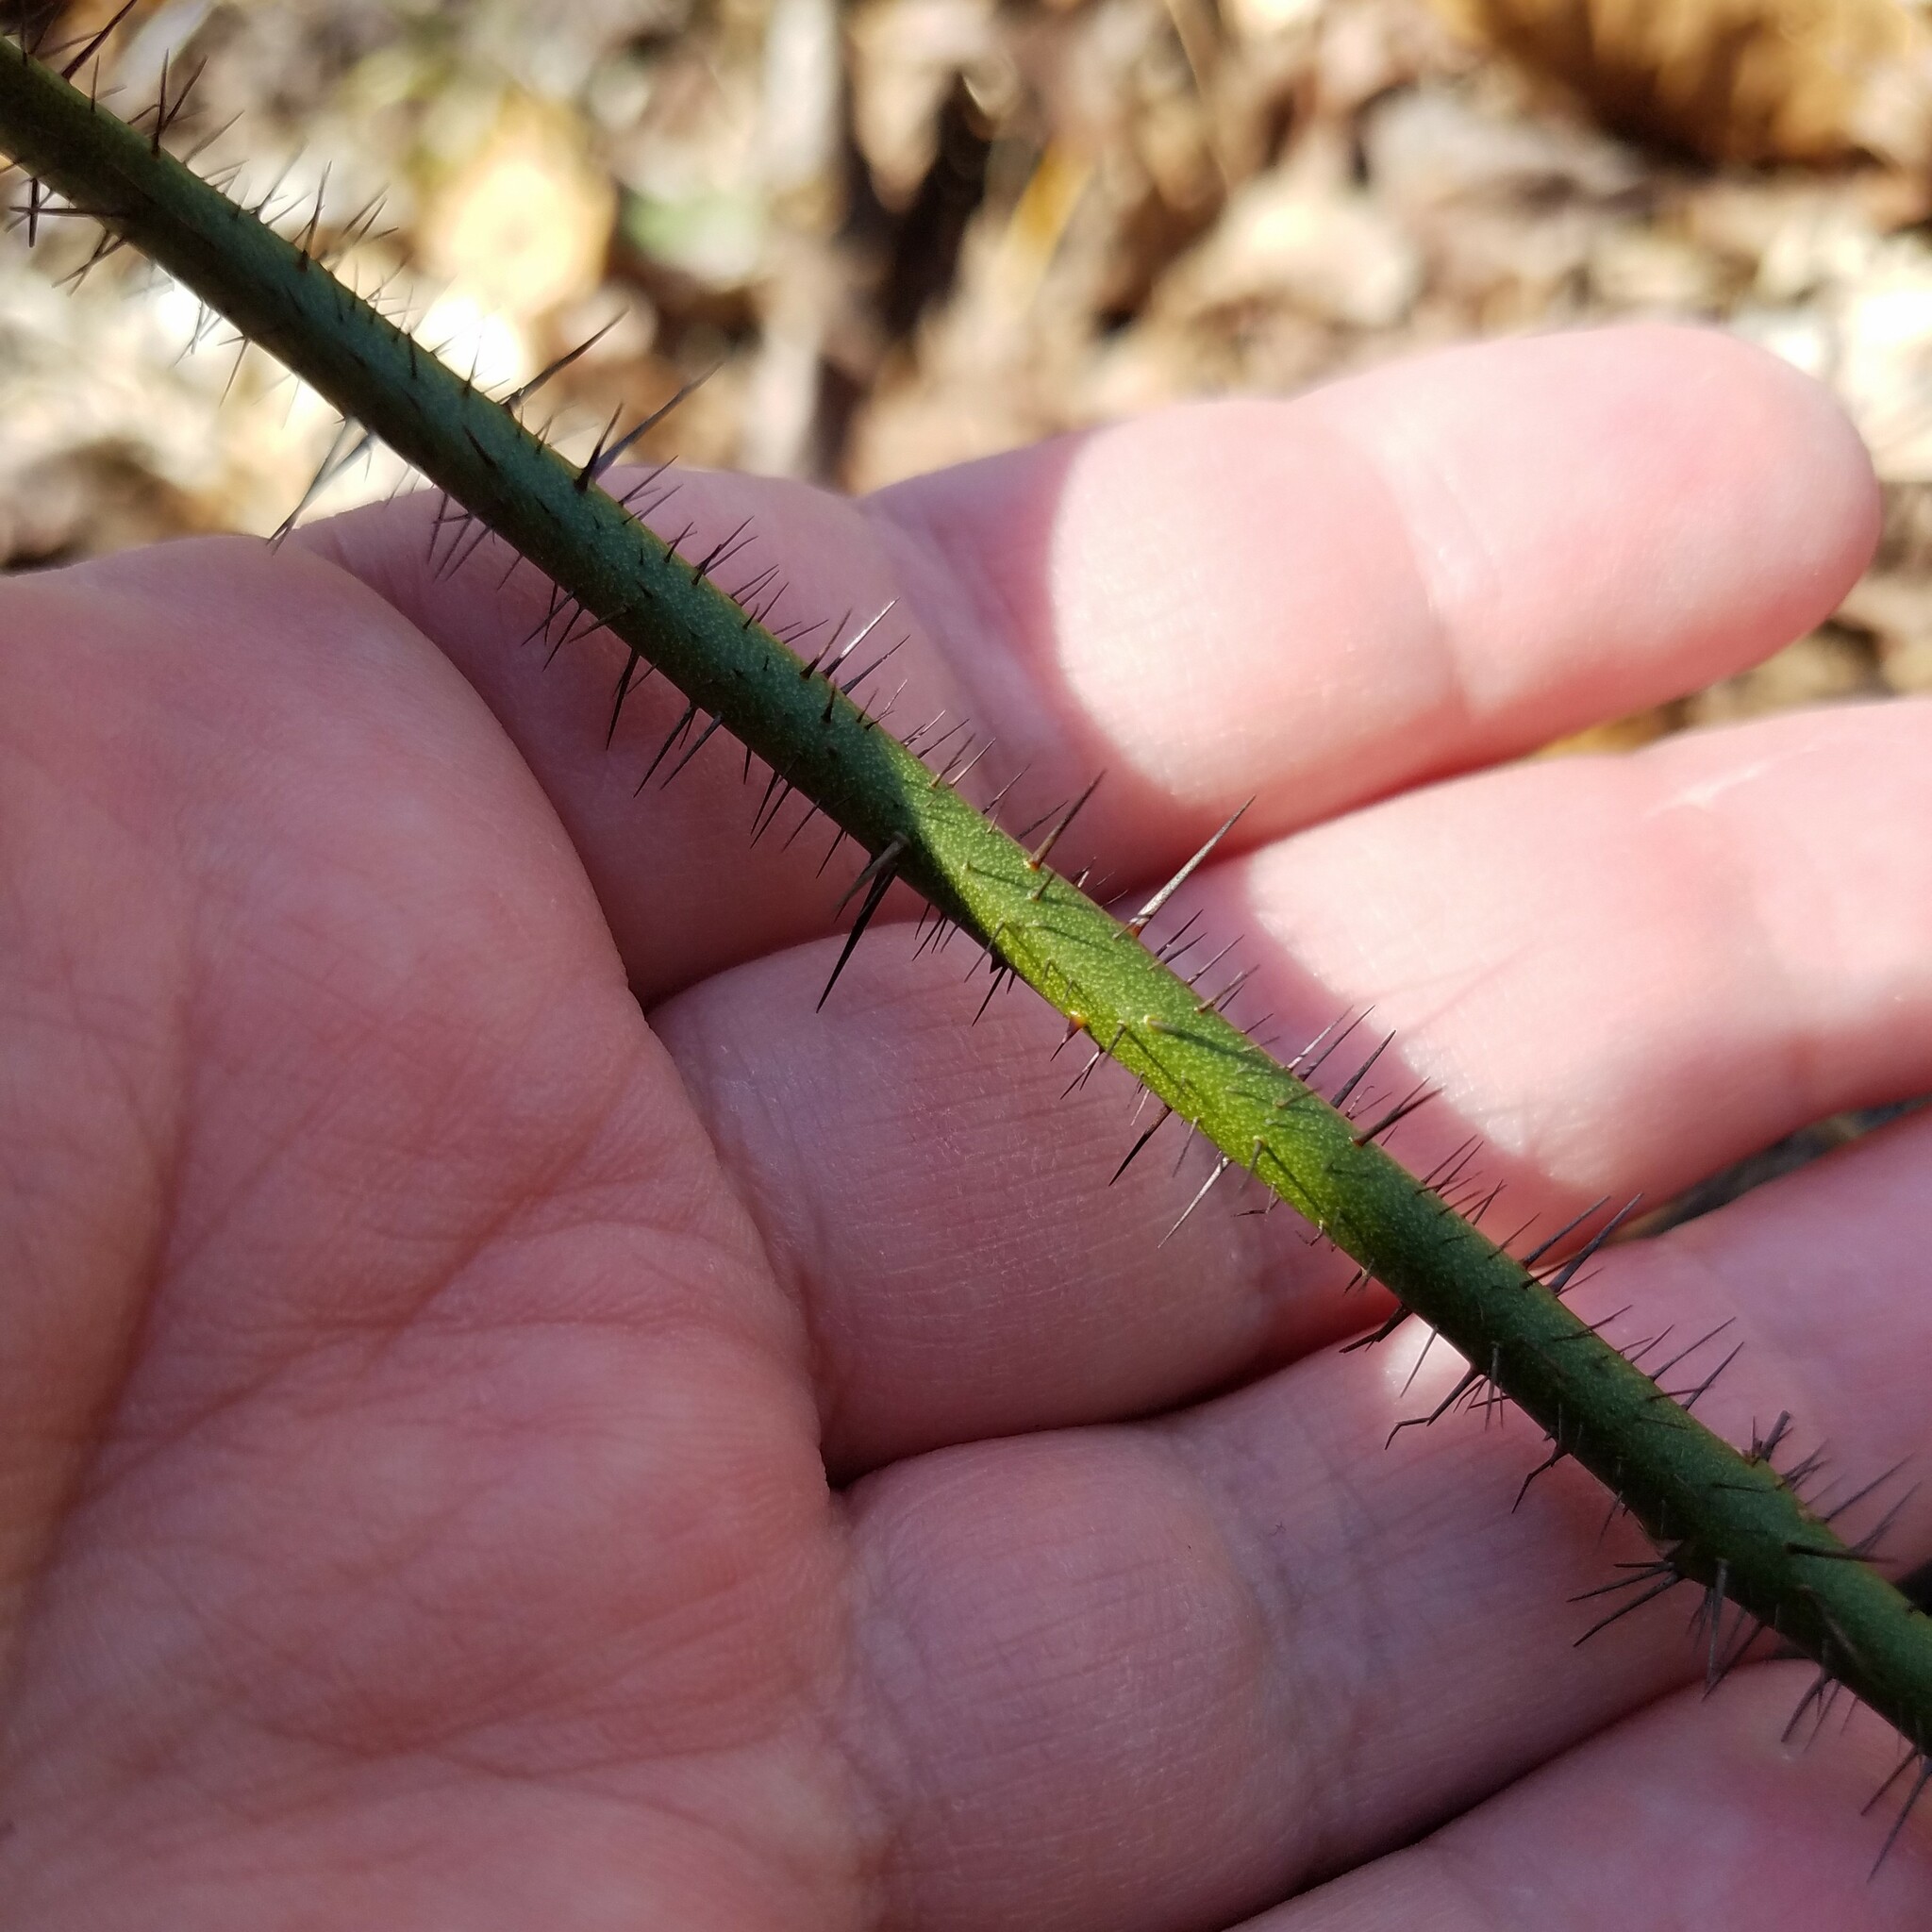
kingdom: Plantae
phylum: Tracheophyta
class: Liliopsida
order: Liliales
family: Smilacaceae
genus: Smilax
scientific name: Smilax tamnoides
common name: Hellfetter
